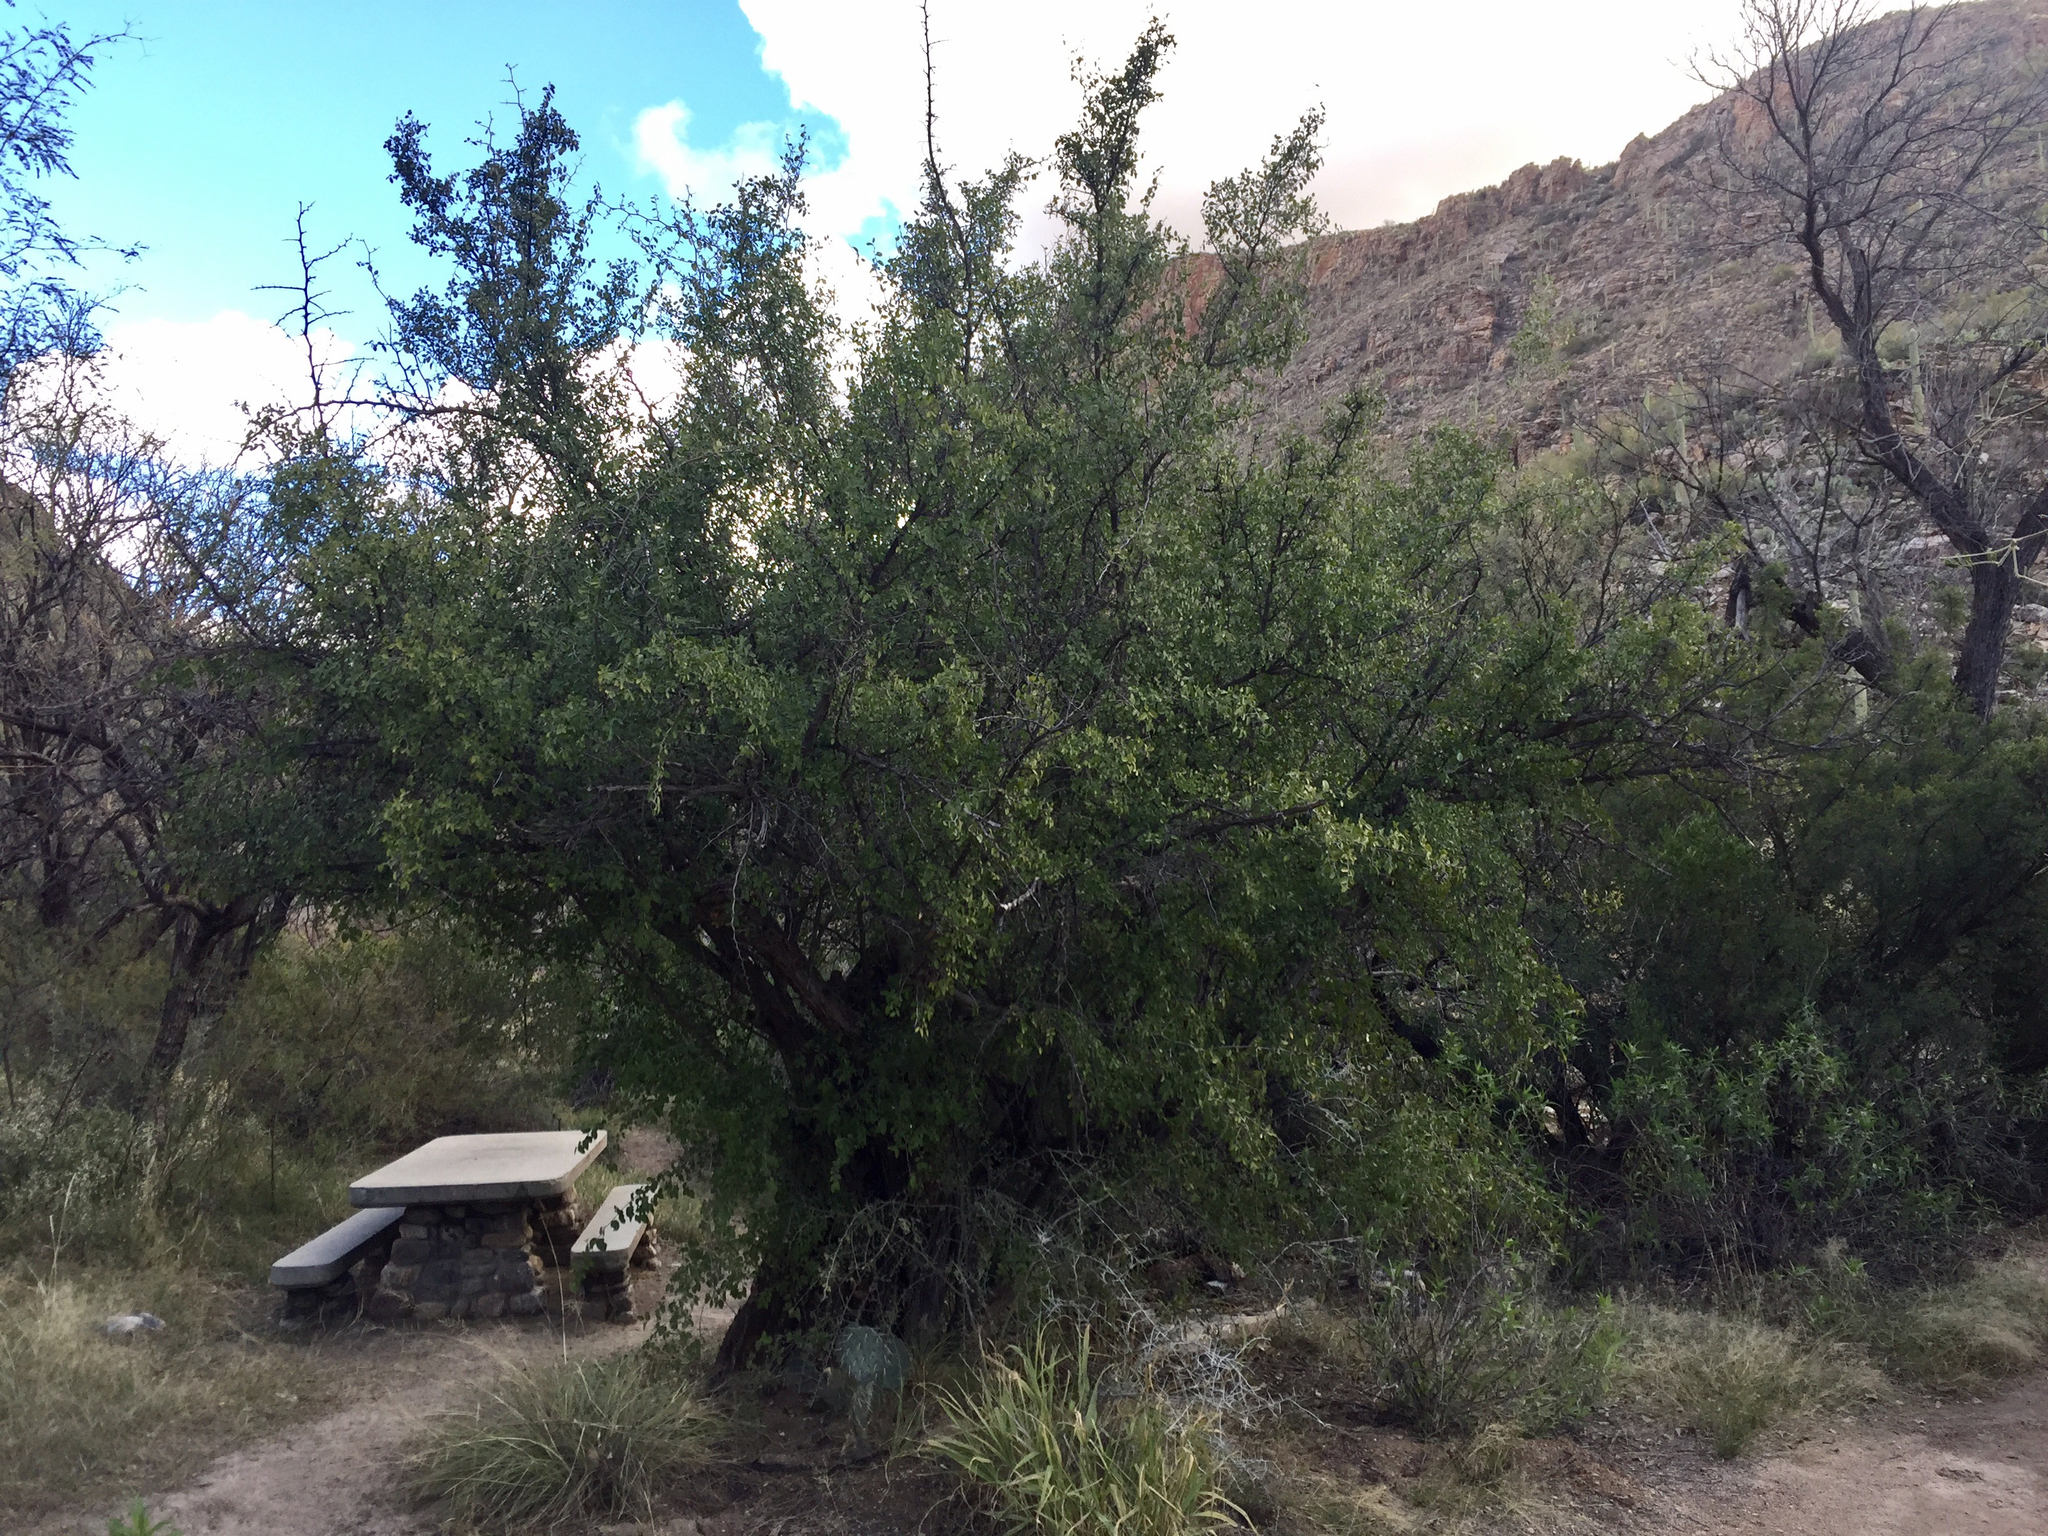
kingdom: Plantae
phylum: Tracheophyta
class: Magnoliopsida
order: Rosales
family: Cannabaceae
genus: Celtis
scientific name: Celtis pallida
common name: Desert hackberry
